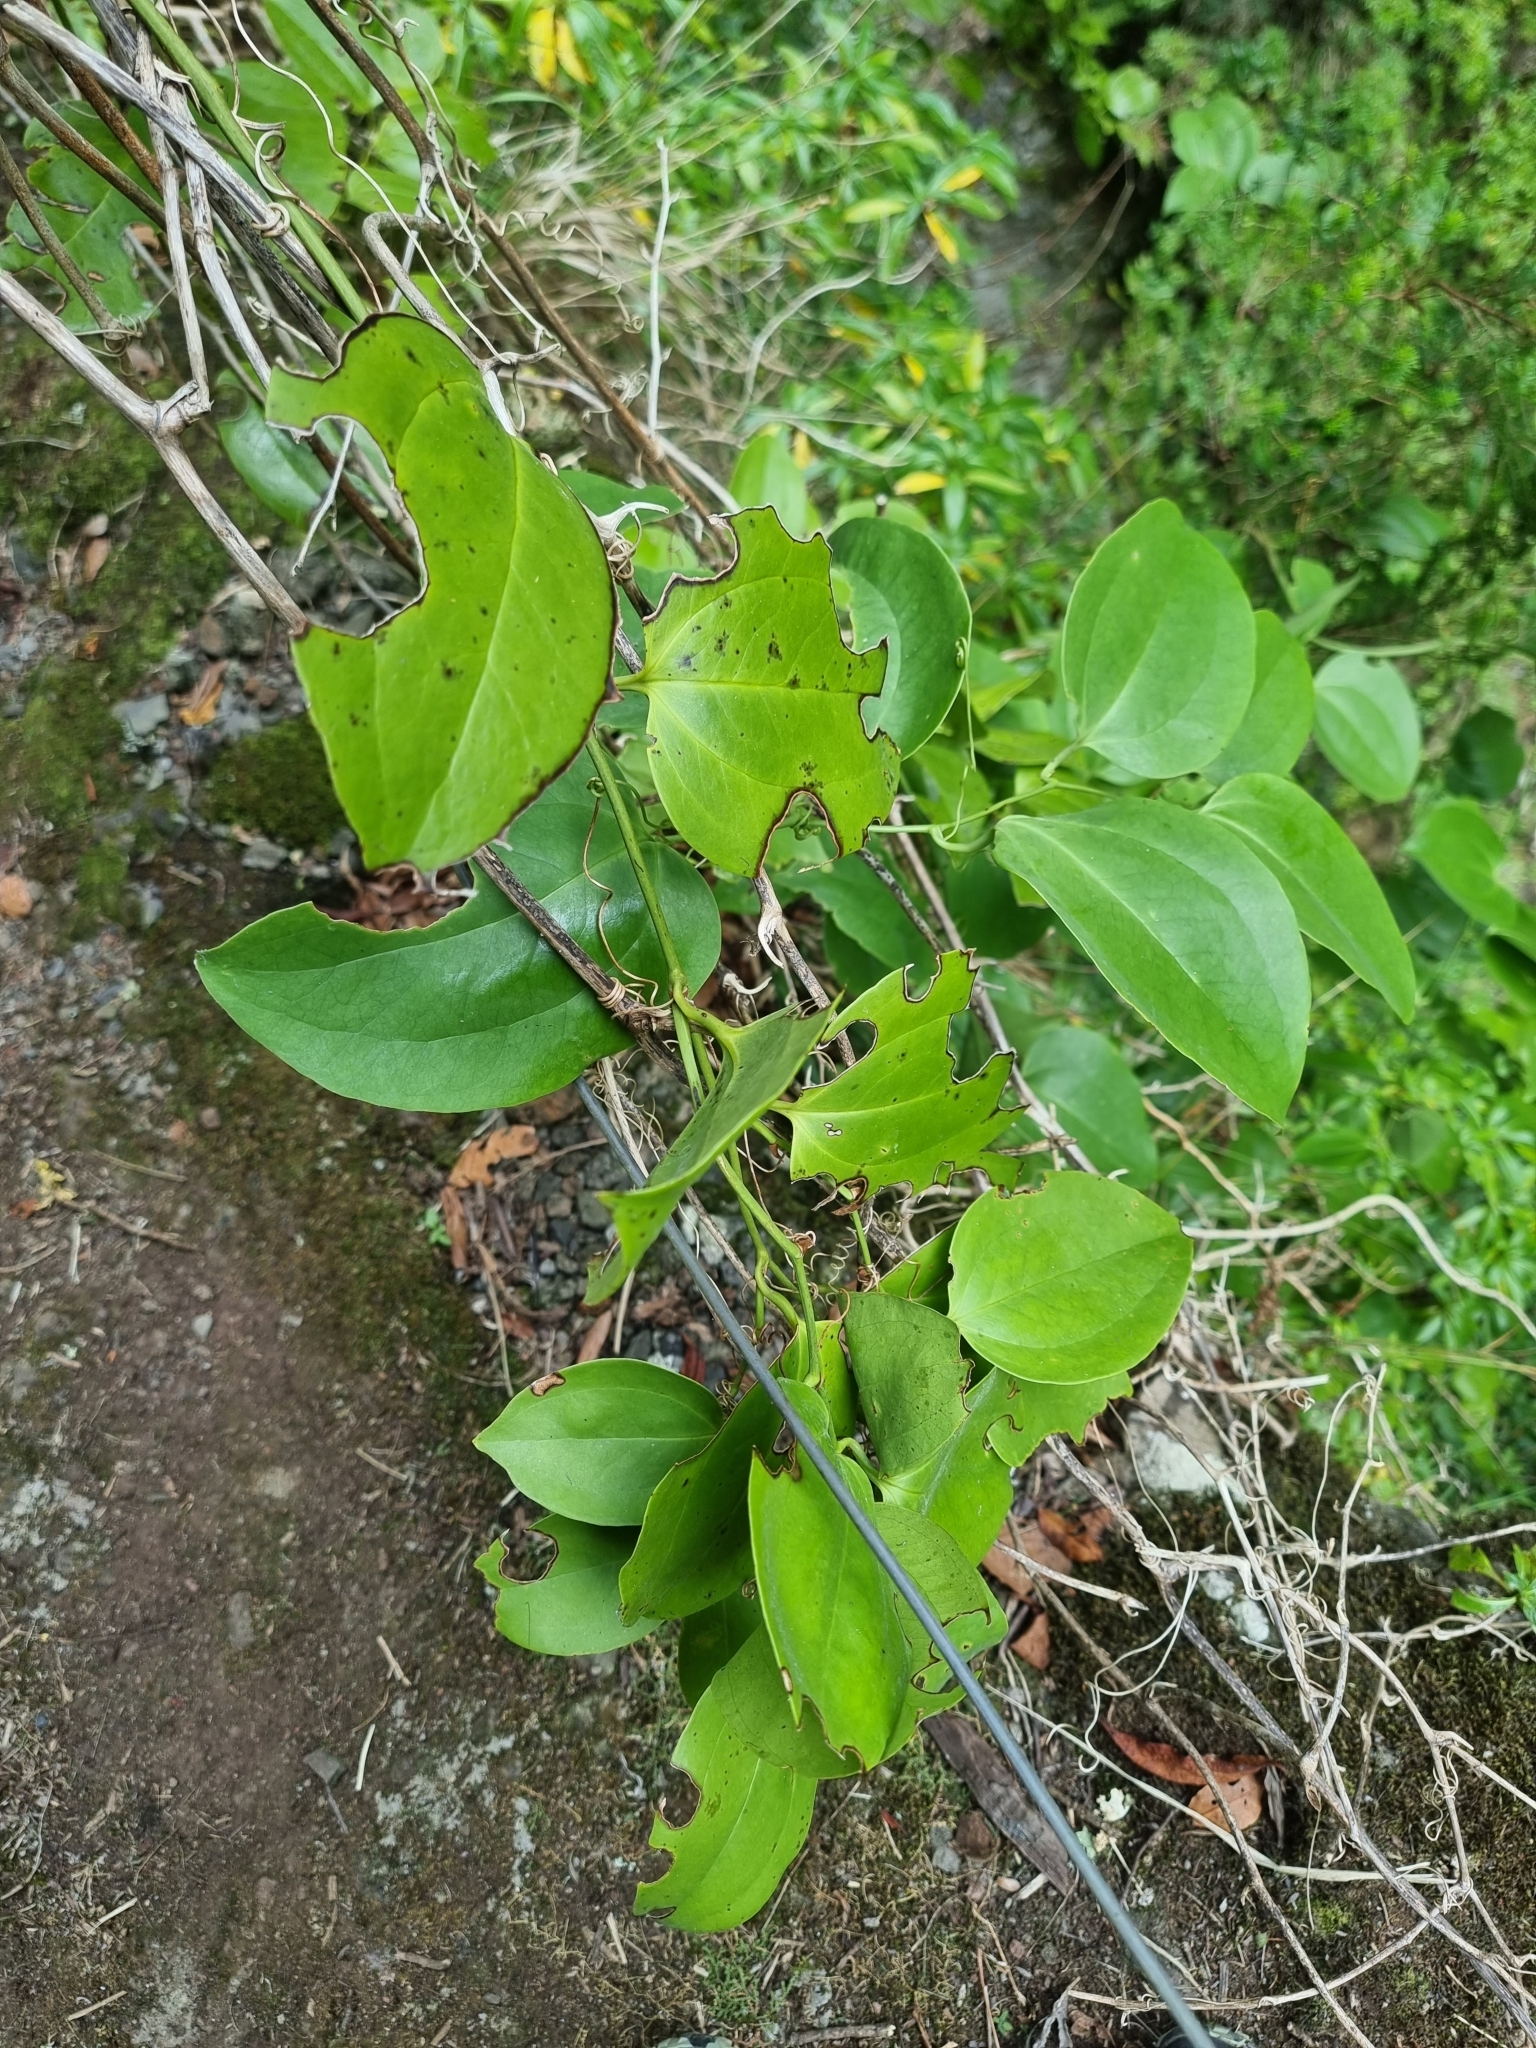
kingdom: Plantae
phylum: Tracheophyta
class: Liliopsida
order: Liliales
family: Smilacaceae
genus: Smilax
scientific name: Smilax canariensis
